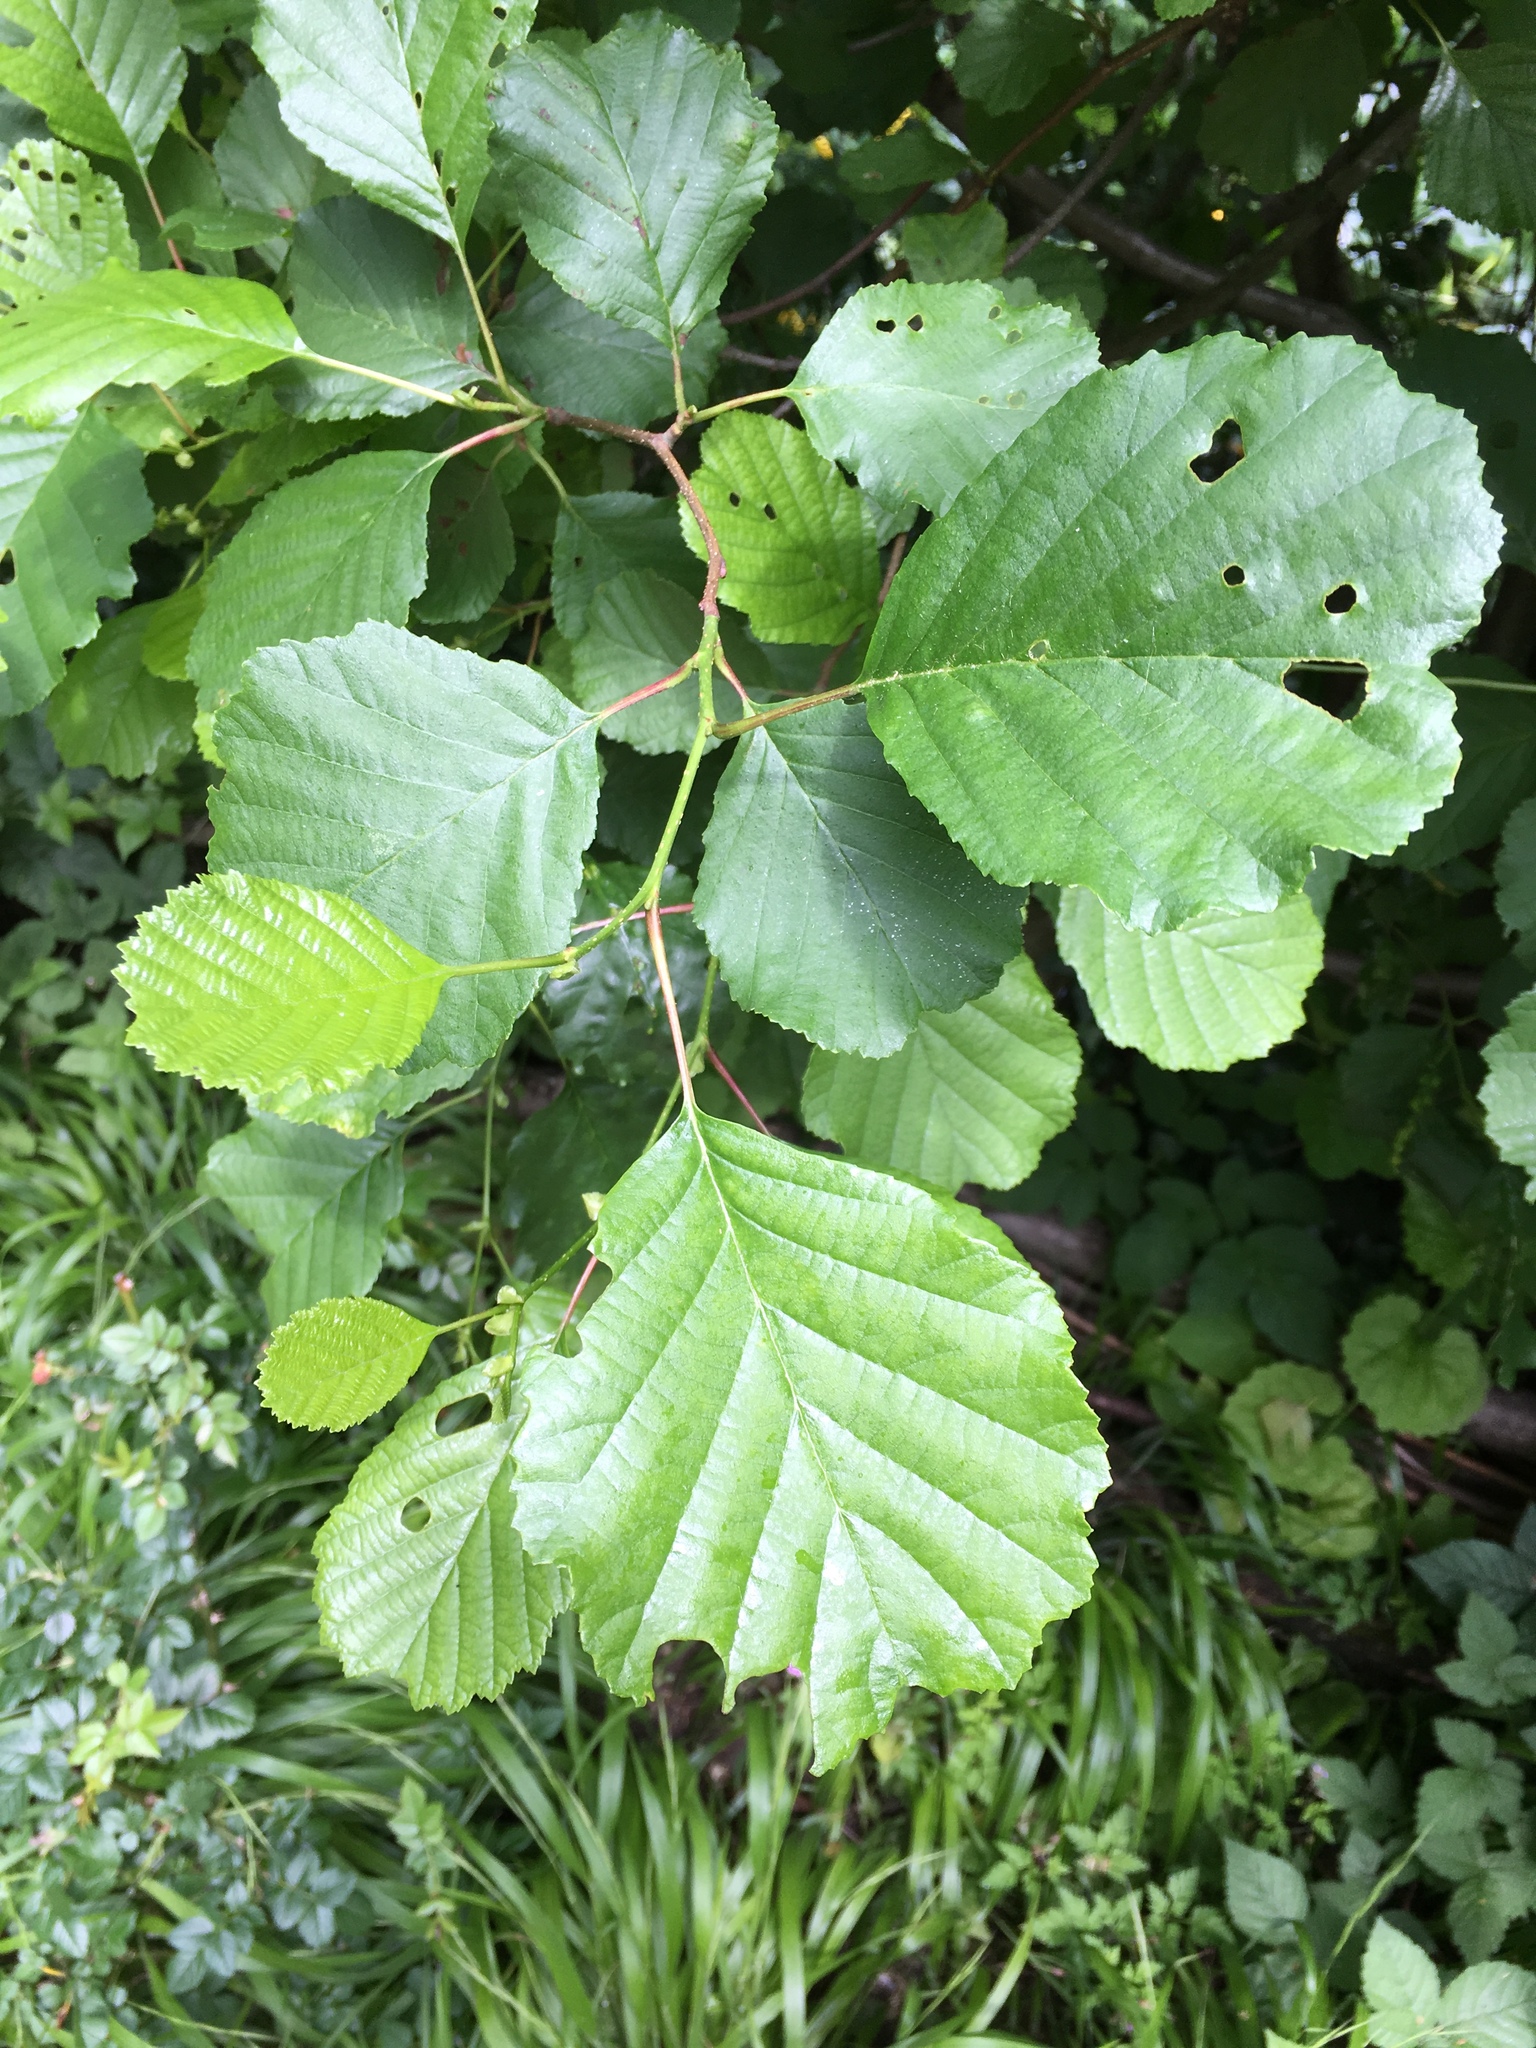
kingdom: Plantae
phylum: Tracheophyta
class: Magnoliopsida
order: Fagales
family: Betulaceae
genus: Alnus
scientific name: Alnus glutinosa
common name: Black alder
